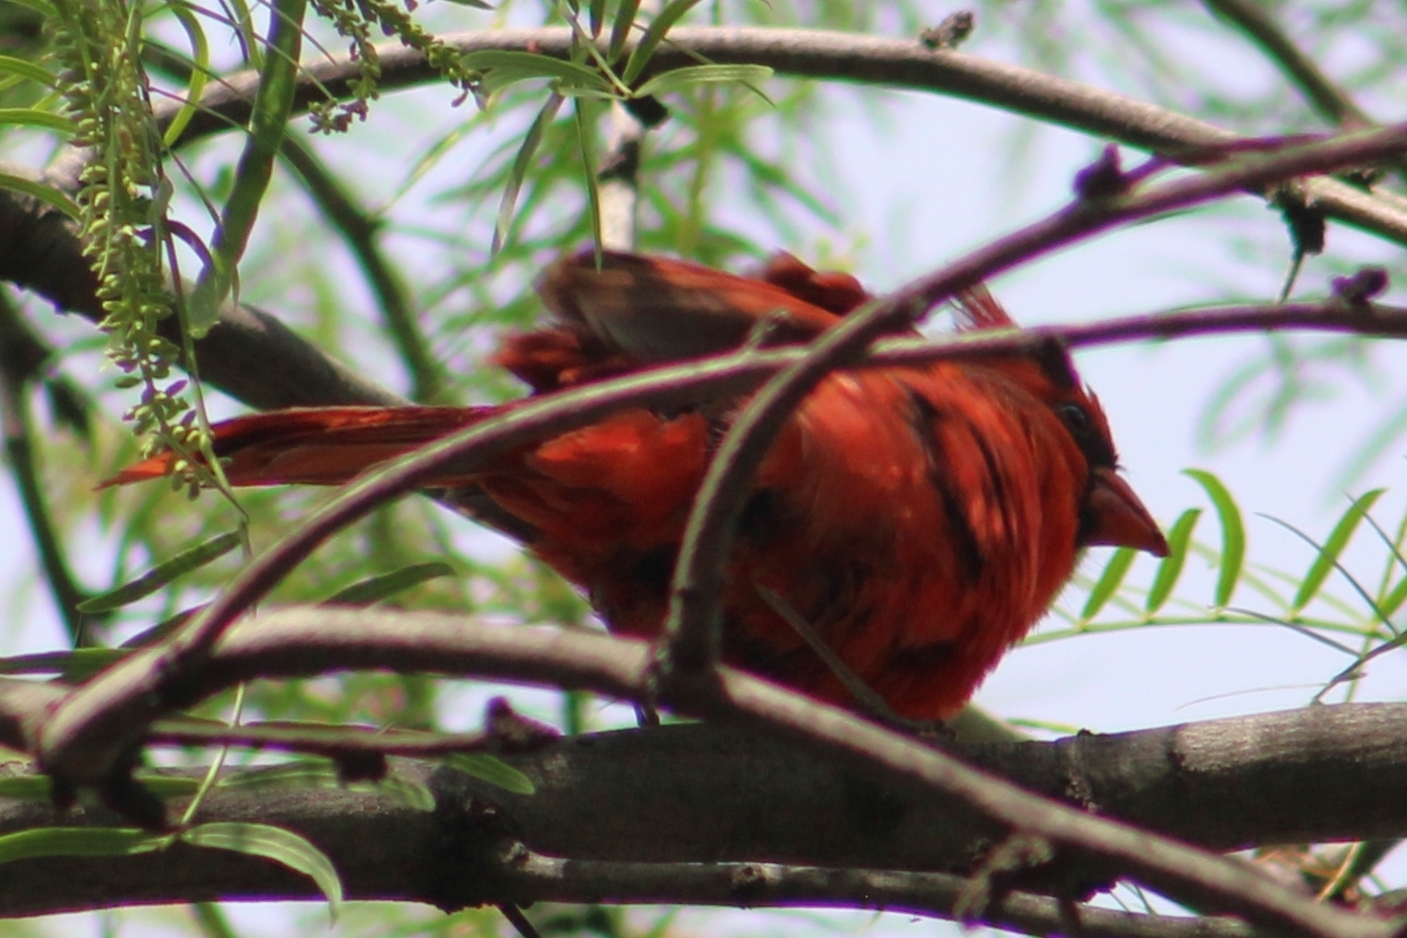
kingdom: Animalia
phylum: Chordata
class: Aves
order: Passeriformes
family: Cardinalidae
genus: Cardinalis
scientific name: Cardinalis cardinalis
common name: Northern cardinal
